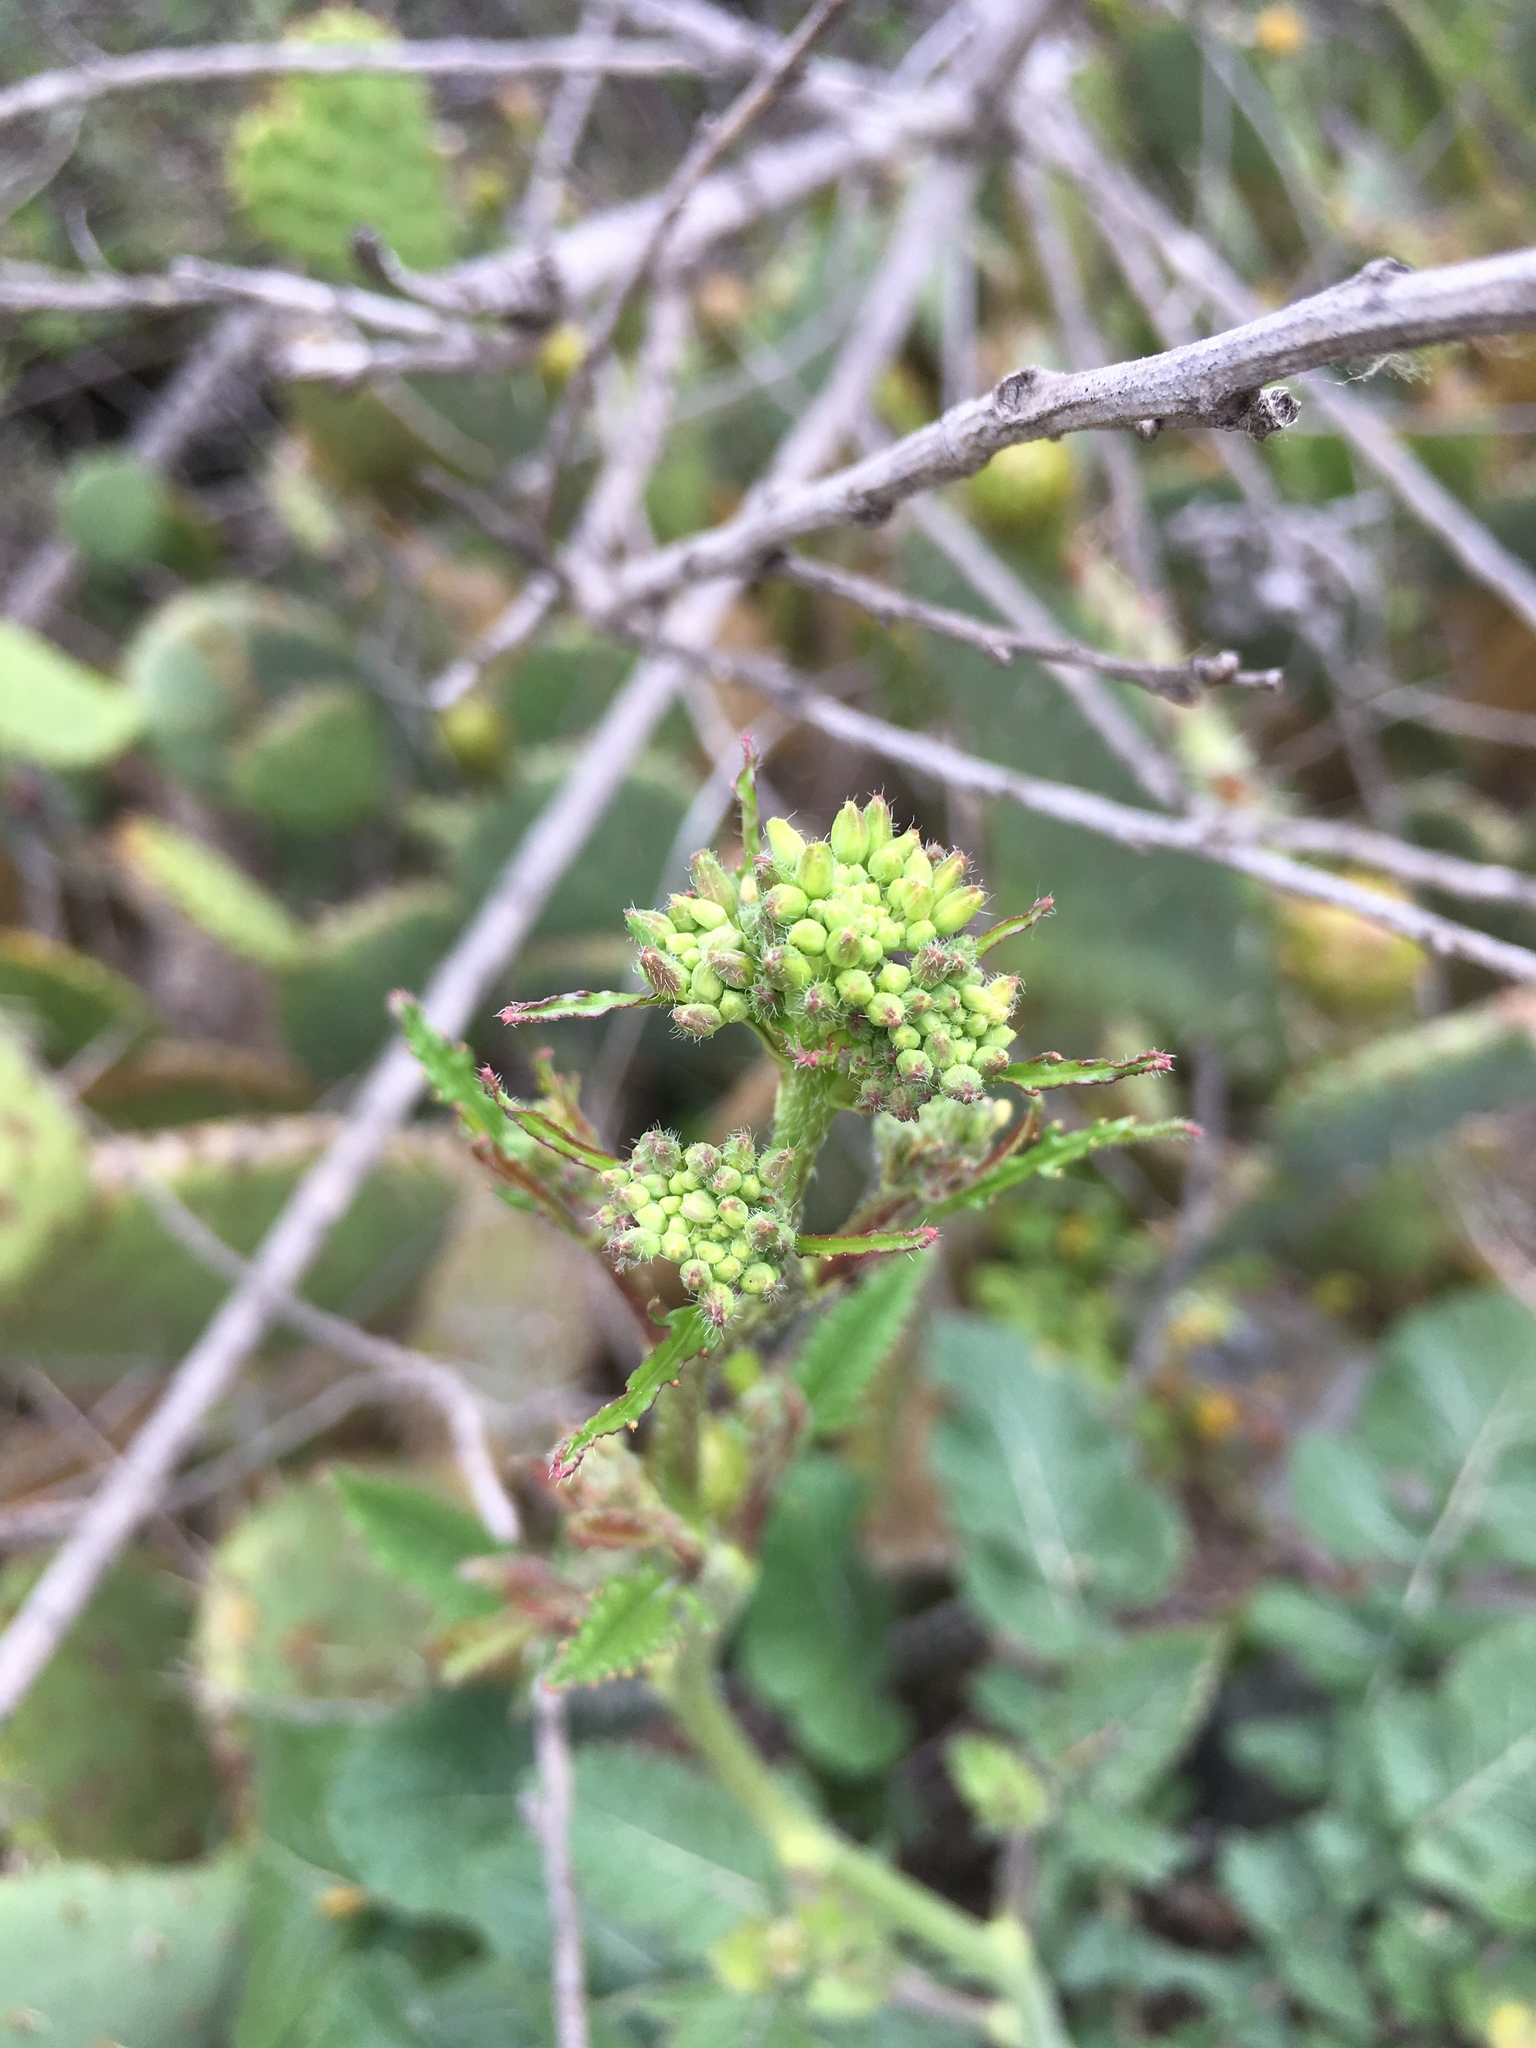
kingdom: Plantae
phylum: Tracheophyta
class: Magnoliopsida
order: Brassicales
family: Brassicaceae
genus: Brassica
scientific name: Brassica nigra
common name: Black mustard
